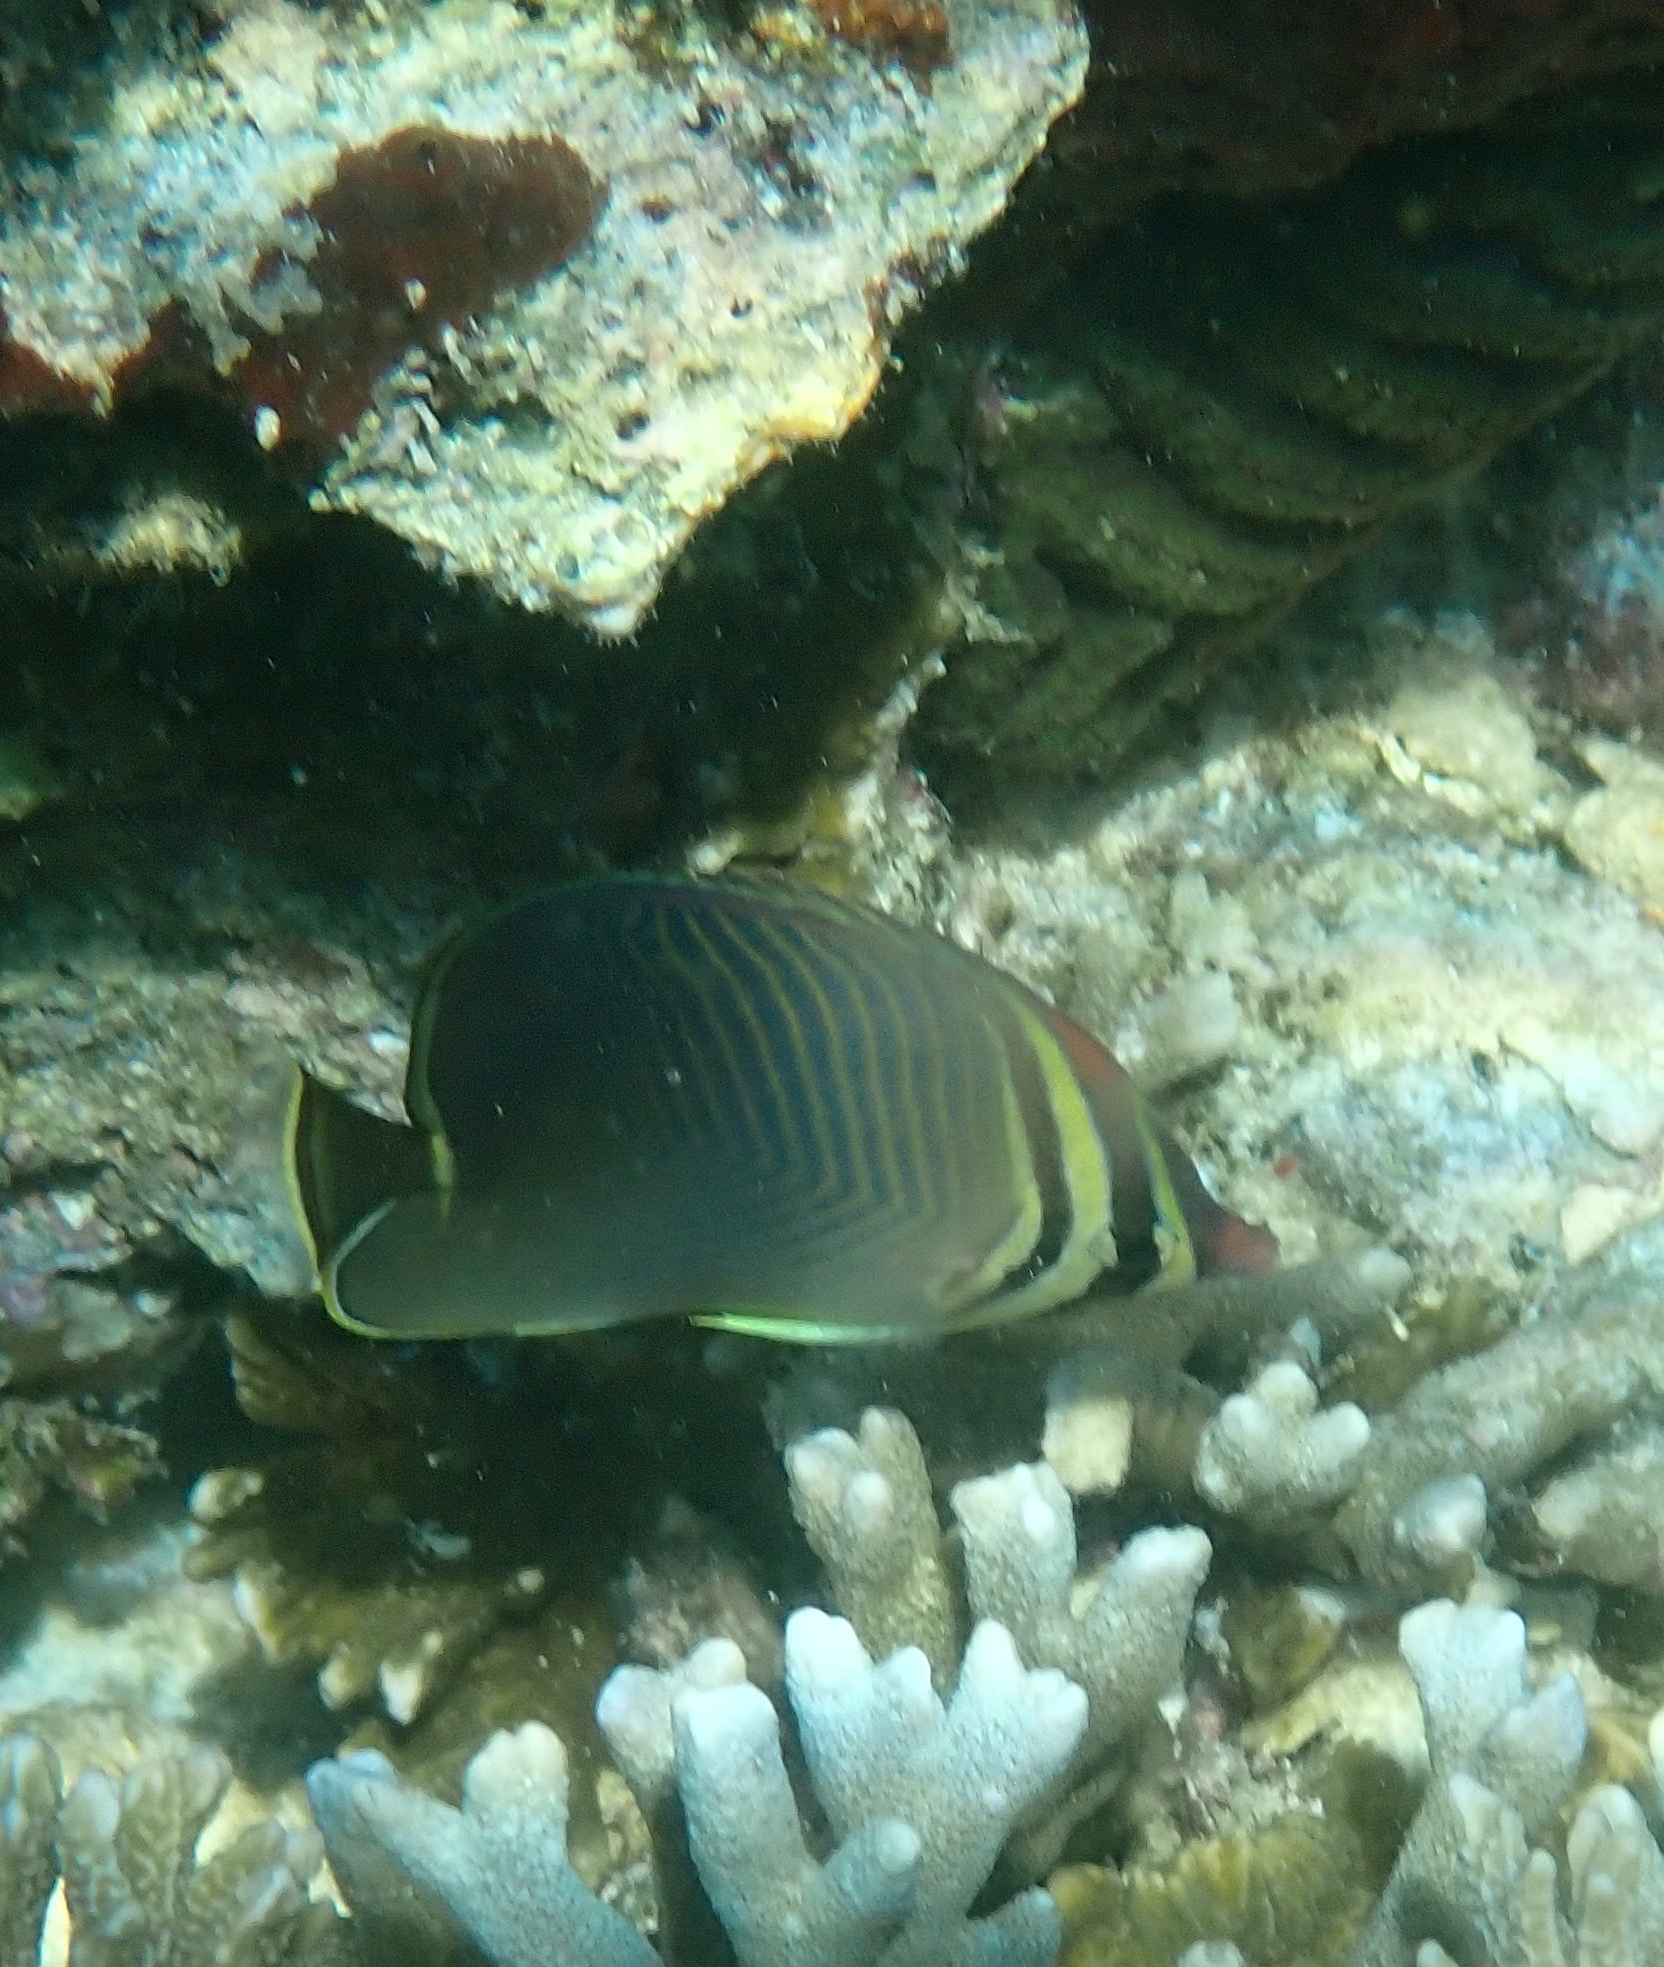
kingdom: Animalia
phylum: Chordata
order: Perciformes
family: Chaetodontidae
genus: Chaetodon
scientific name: Chaetodon baronessa
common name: Triangular butterflyfish
